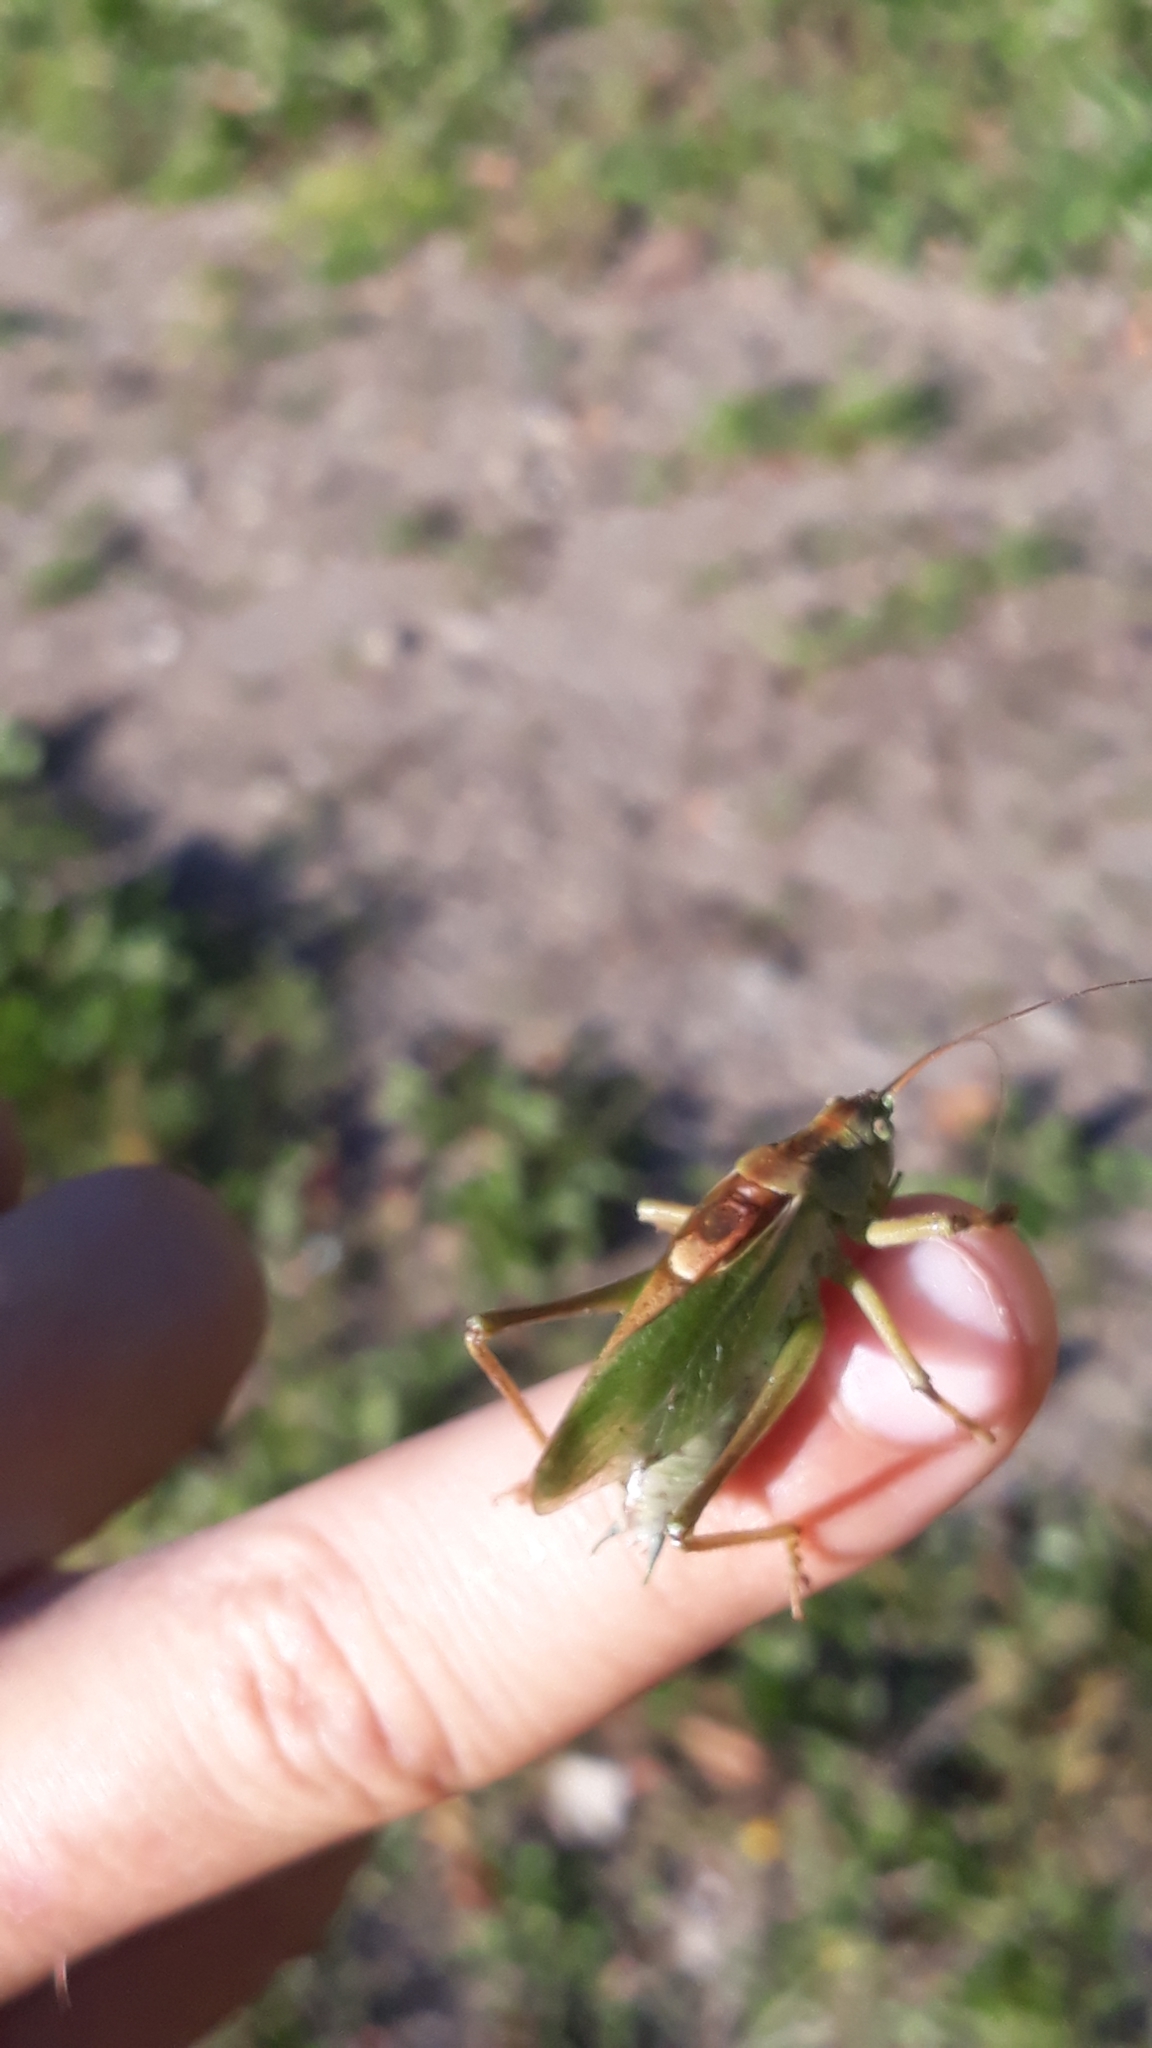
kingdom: Animalia
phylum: Arthropoda
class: Insecta
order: Orthoptera
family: Tettigoniidae
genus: Tettigonia
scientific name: Tettigonia cantans
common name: Upland green bush-cricket
